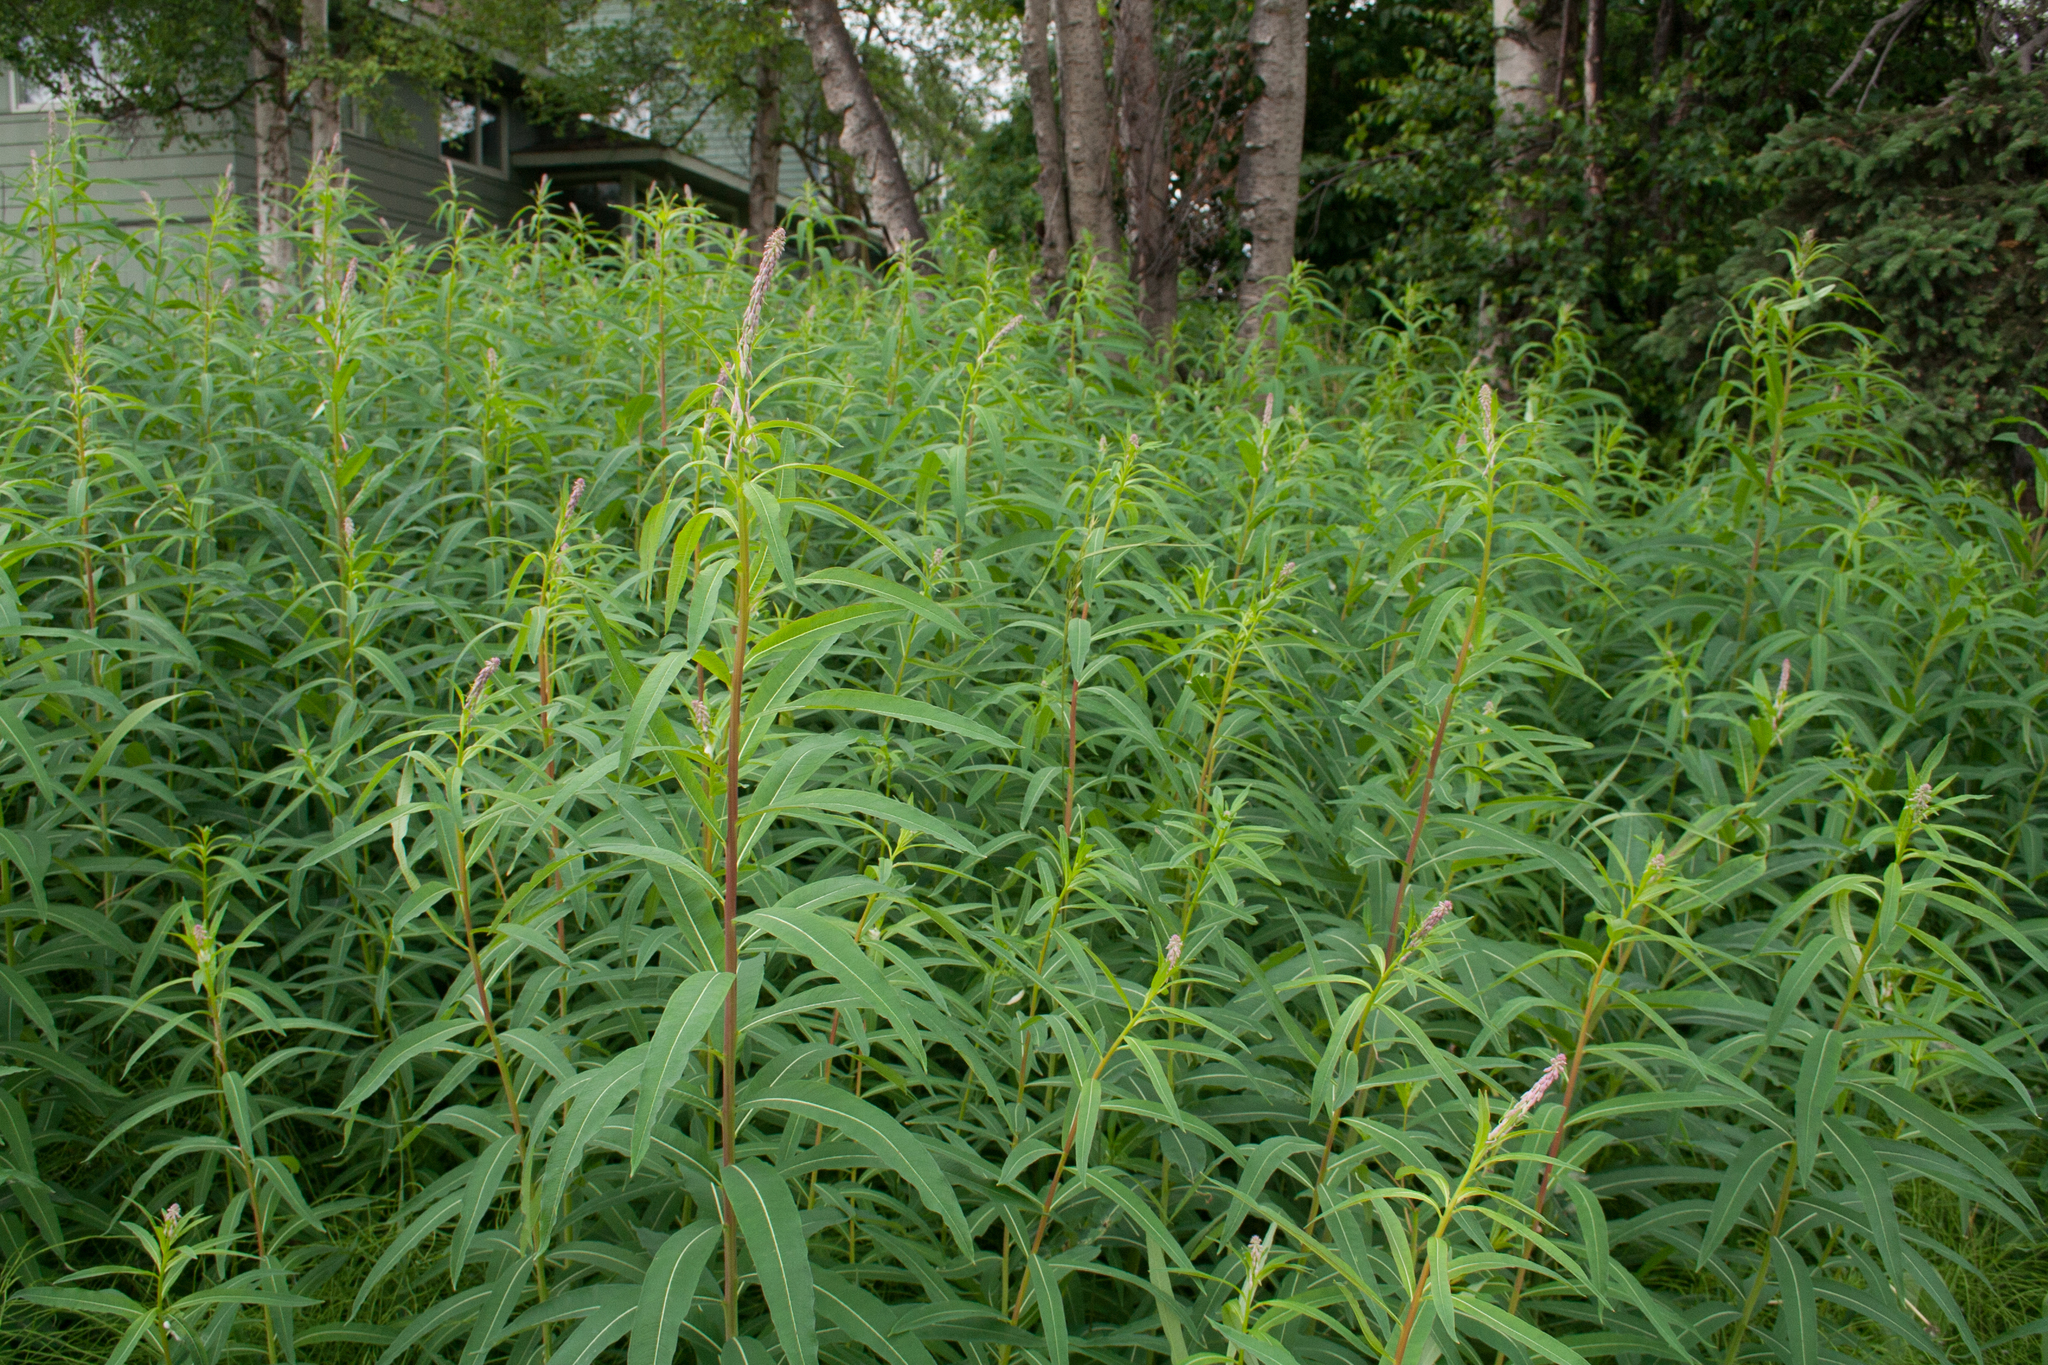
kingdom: Plantae
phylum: Tracheophyta
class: Magnoliopsida
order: Myrtales
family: Onagraceae
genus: Chamaenerion
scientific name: Chamaenerion angustifolium
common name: Fireweed
